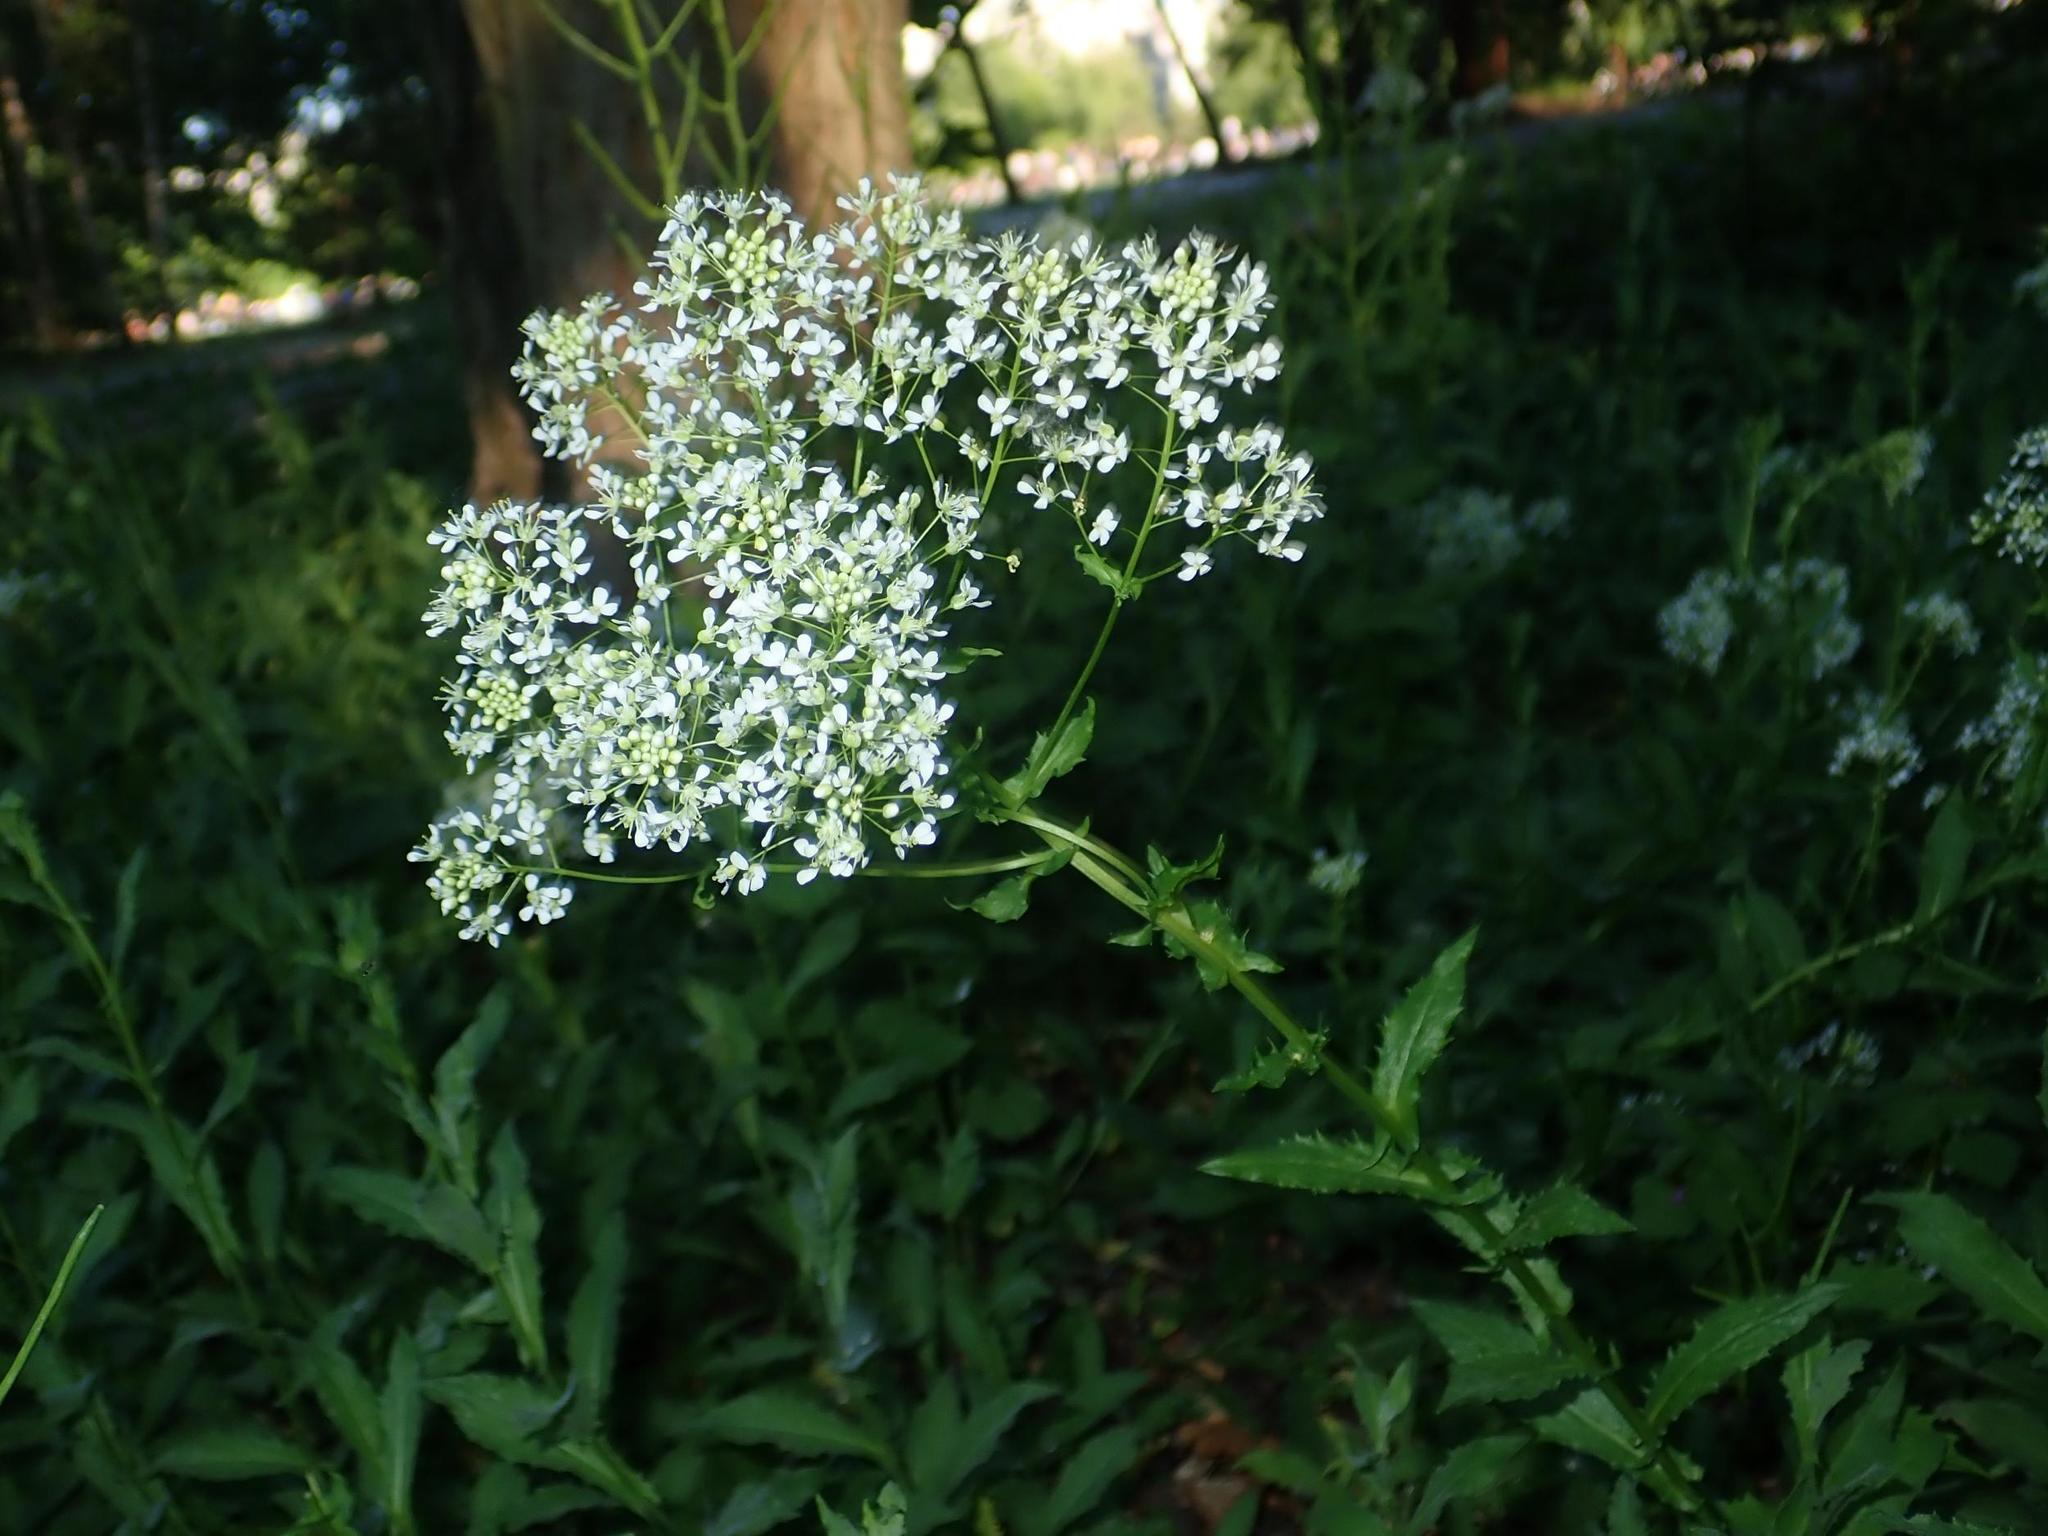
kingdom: Plantae
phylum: Tracheophyta
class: Magnoliopsida
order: Brassicales
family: Brassicaceae
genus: Lepidium
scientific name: Lepidium draba
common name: Hoary cress
